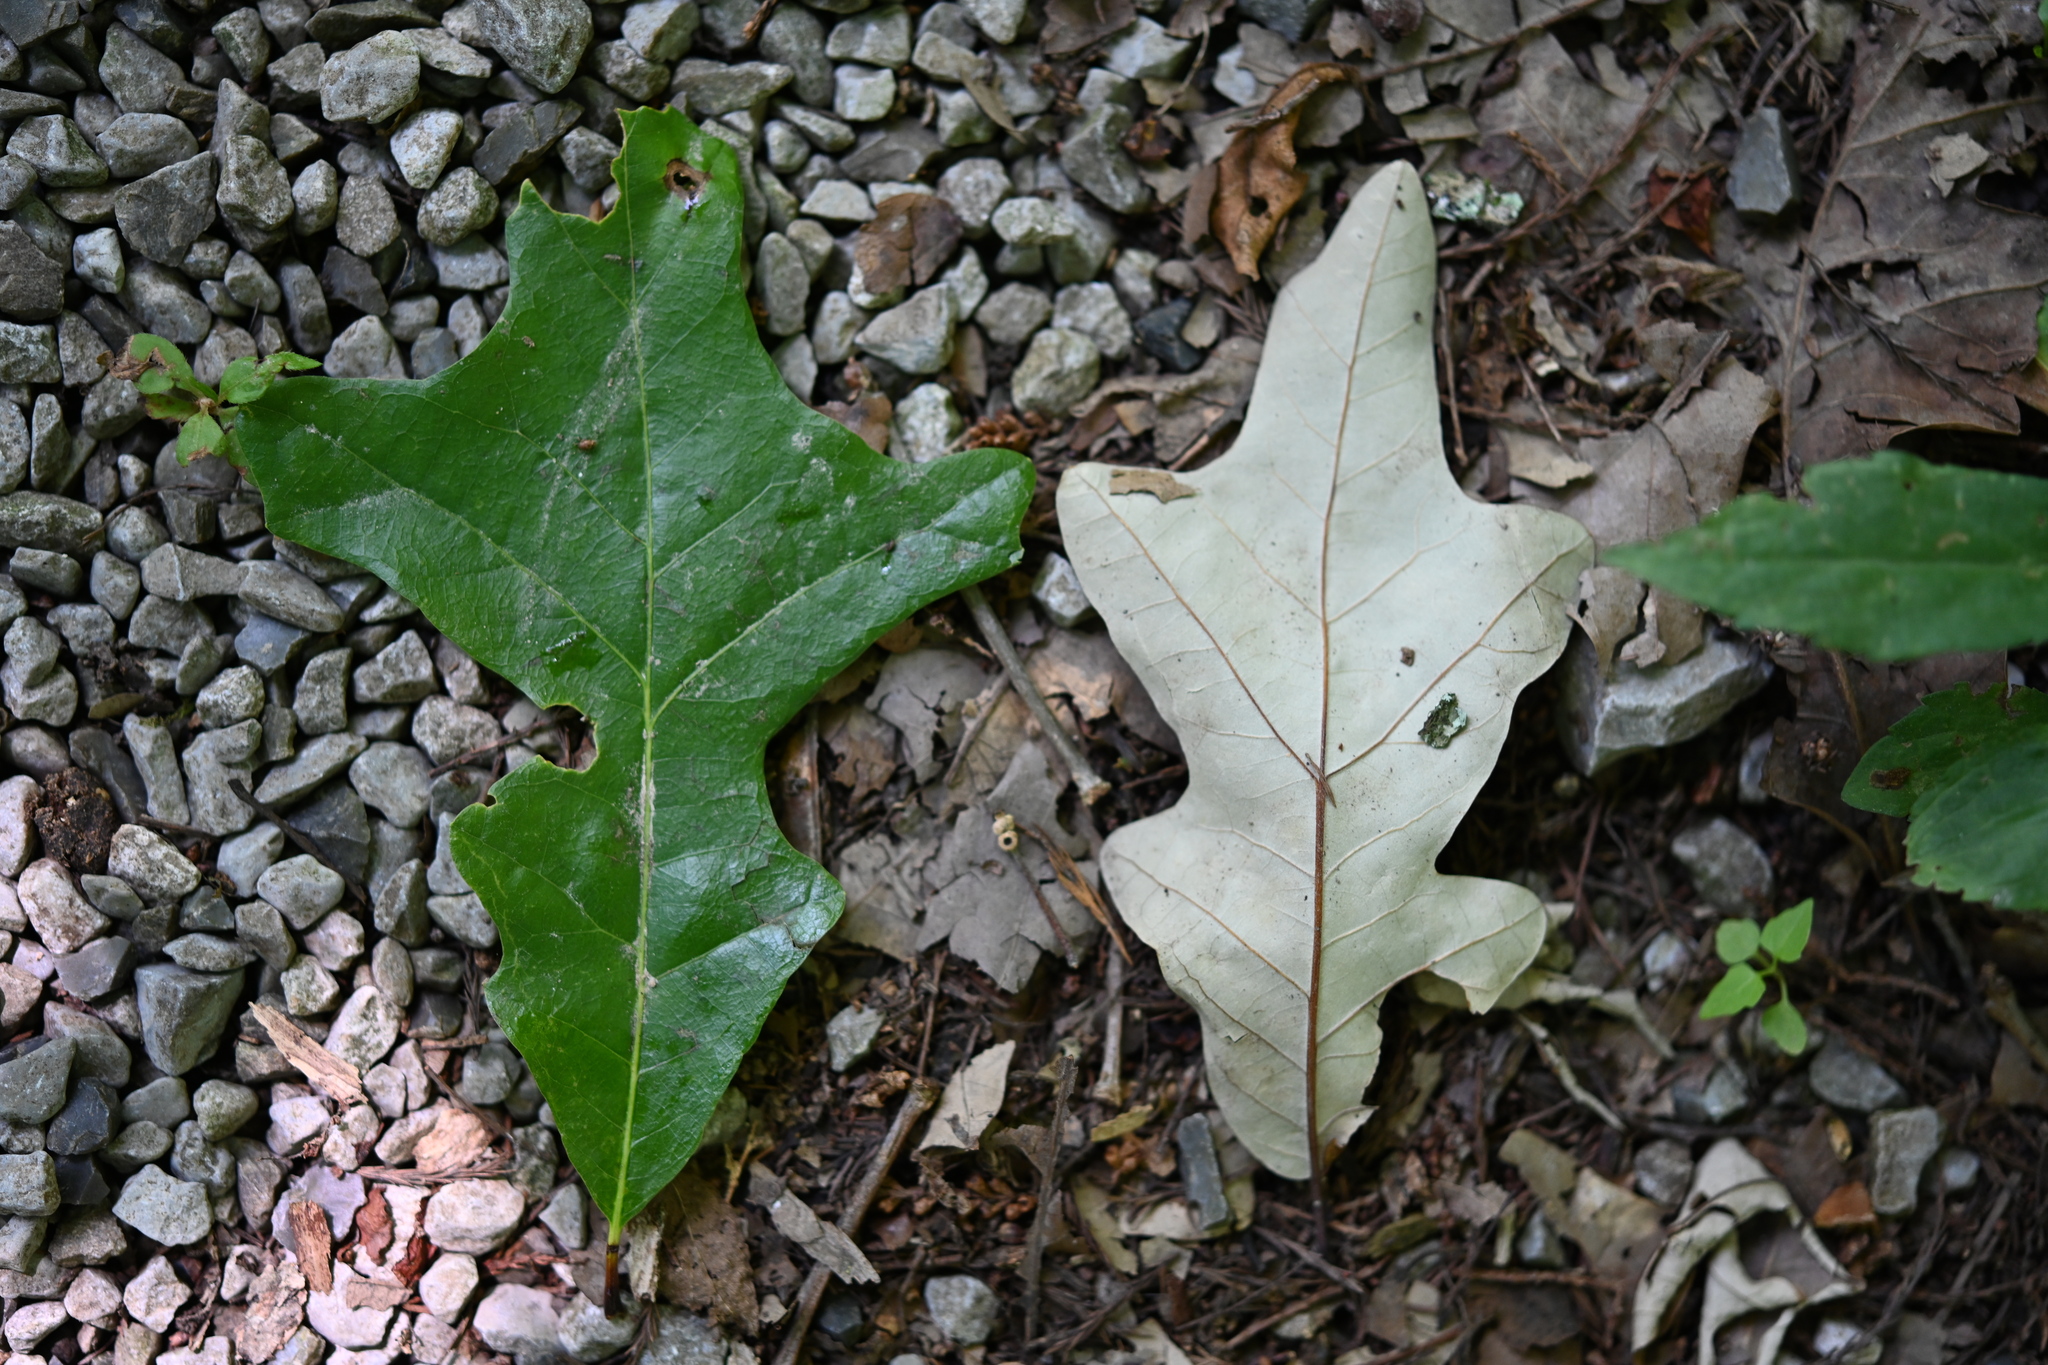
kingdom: Plantae
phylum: Tracheophyta
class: Magnoliopsida
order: Fagales
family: Fagaceae
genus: Quercus
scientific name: Quercus lyrata
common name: Overcup oak
